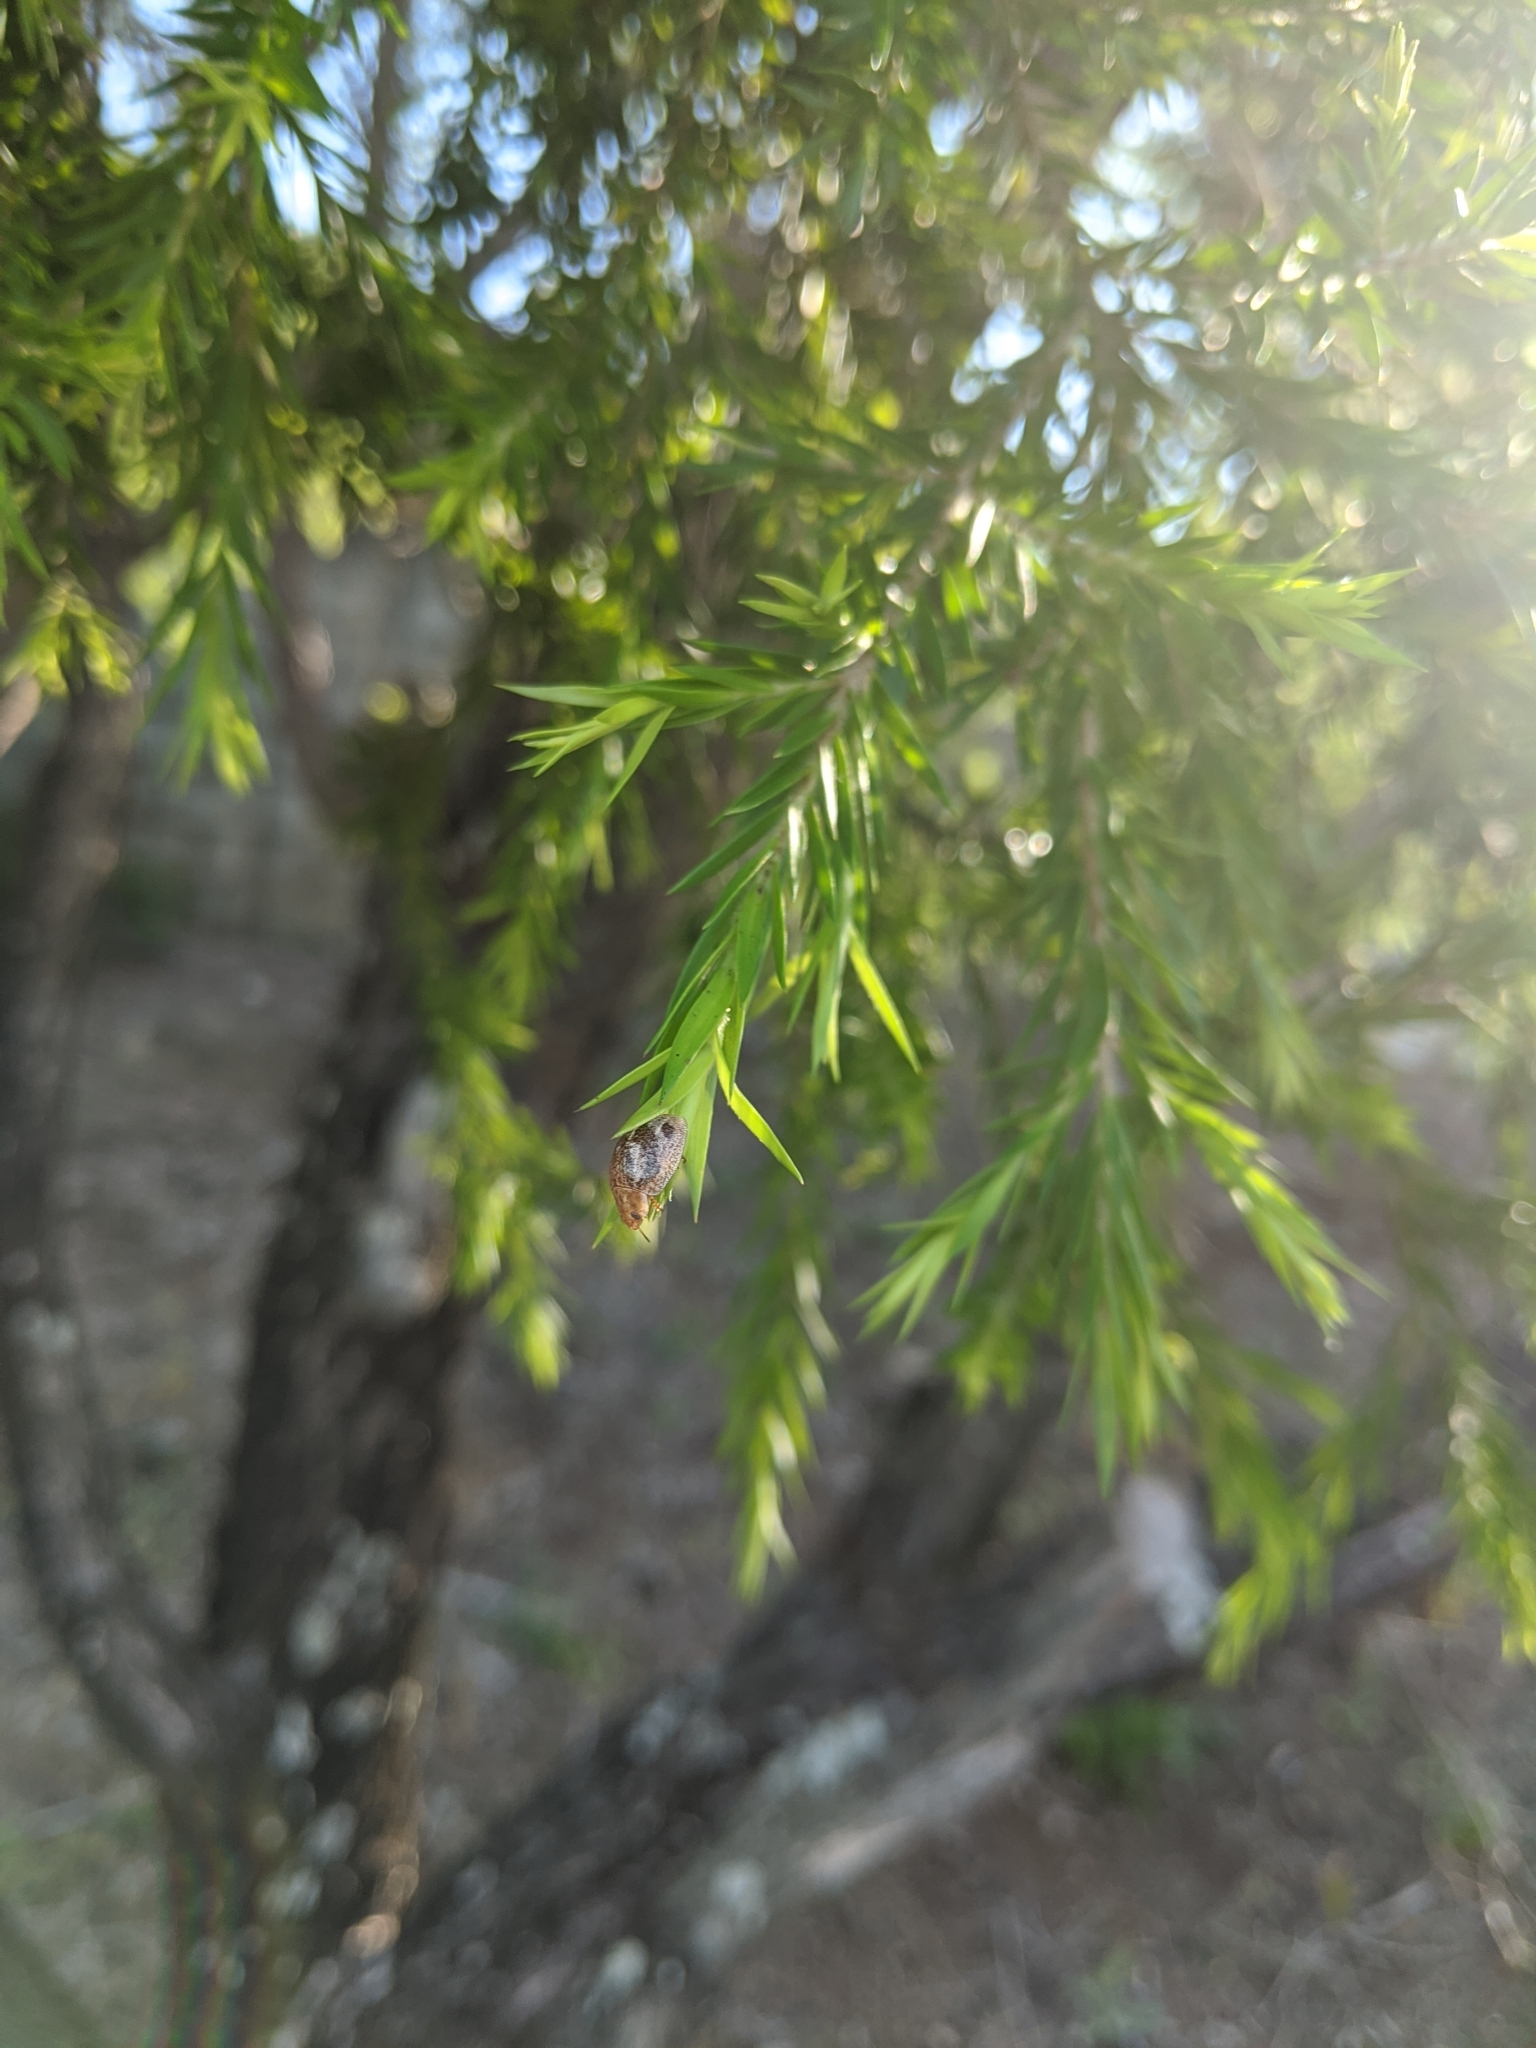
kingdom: Animalia
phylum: Arthropoda
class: Insecta
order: Coleoptera
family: Chrysomelidae
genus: Paropsisterna
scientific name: Paropsisterna
